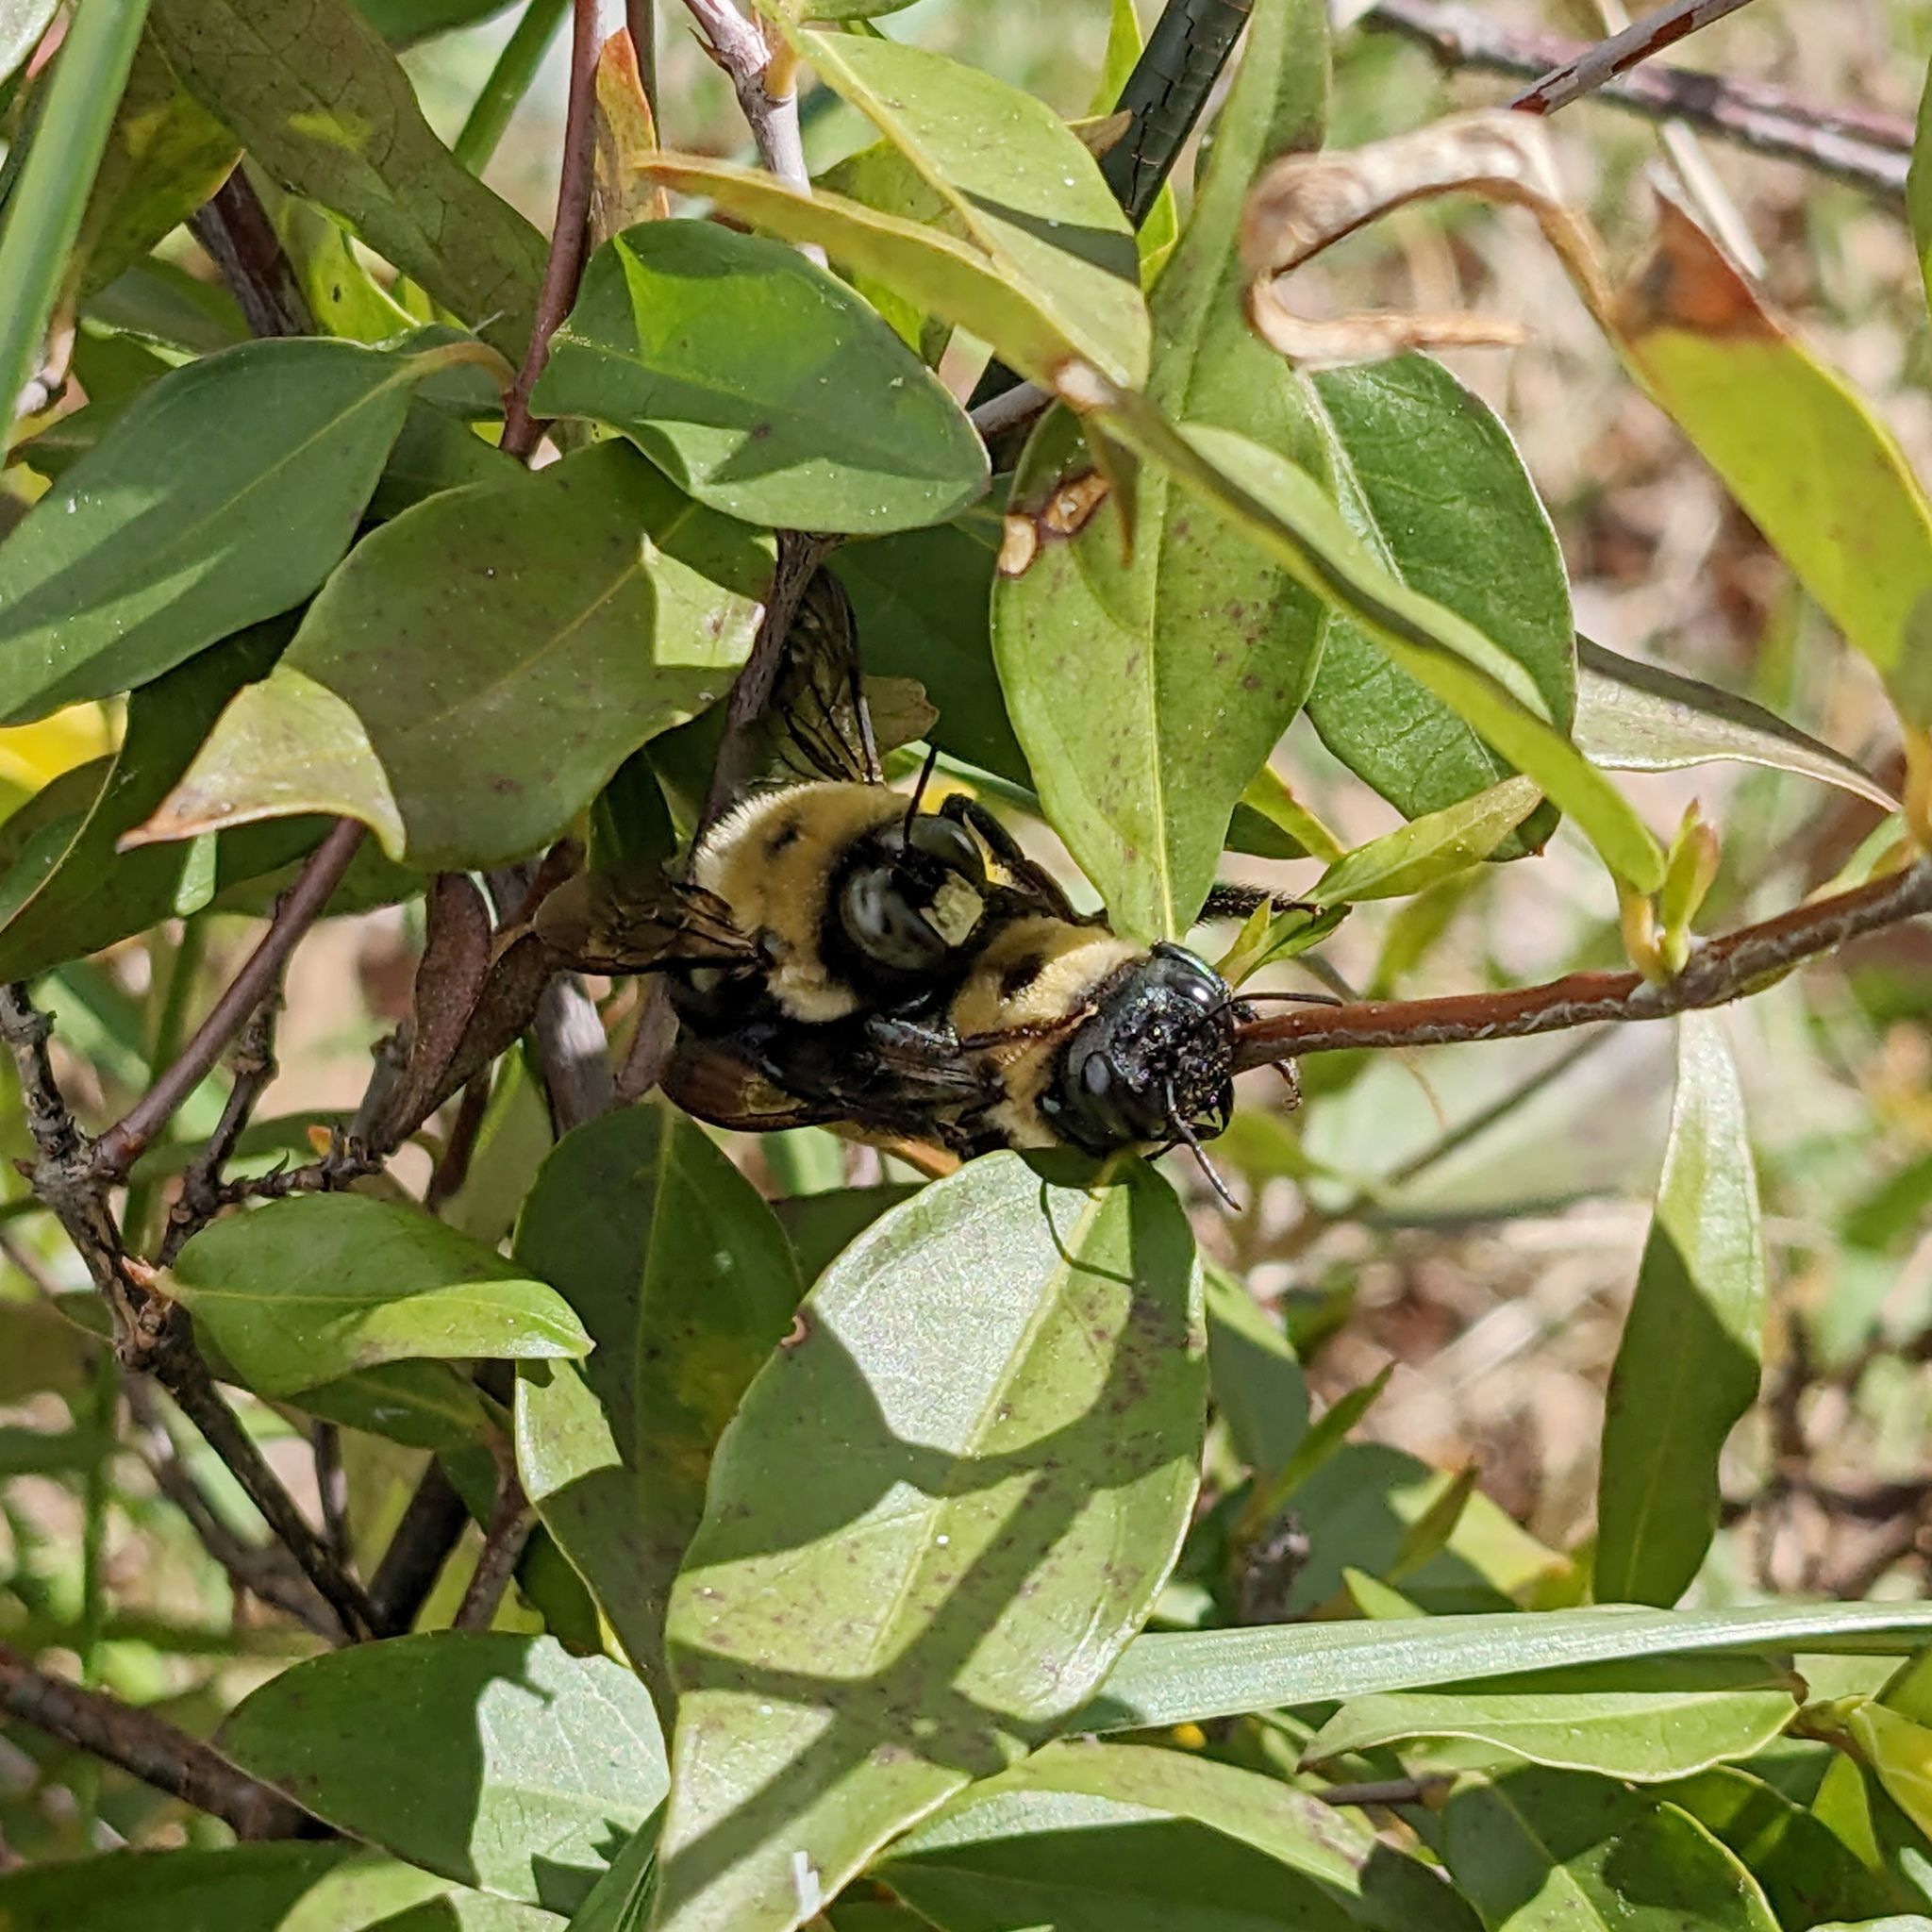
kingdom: Animalia
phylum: Arthropoda
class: Insecta
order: Hymenoptera
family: Apidae
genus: Xylocopa
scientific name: Xylocopa virginica
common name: Carpenter bee
